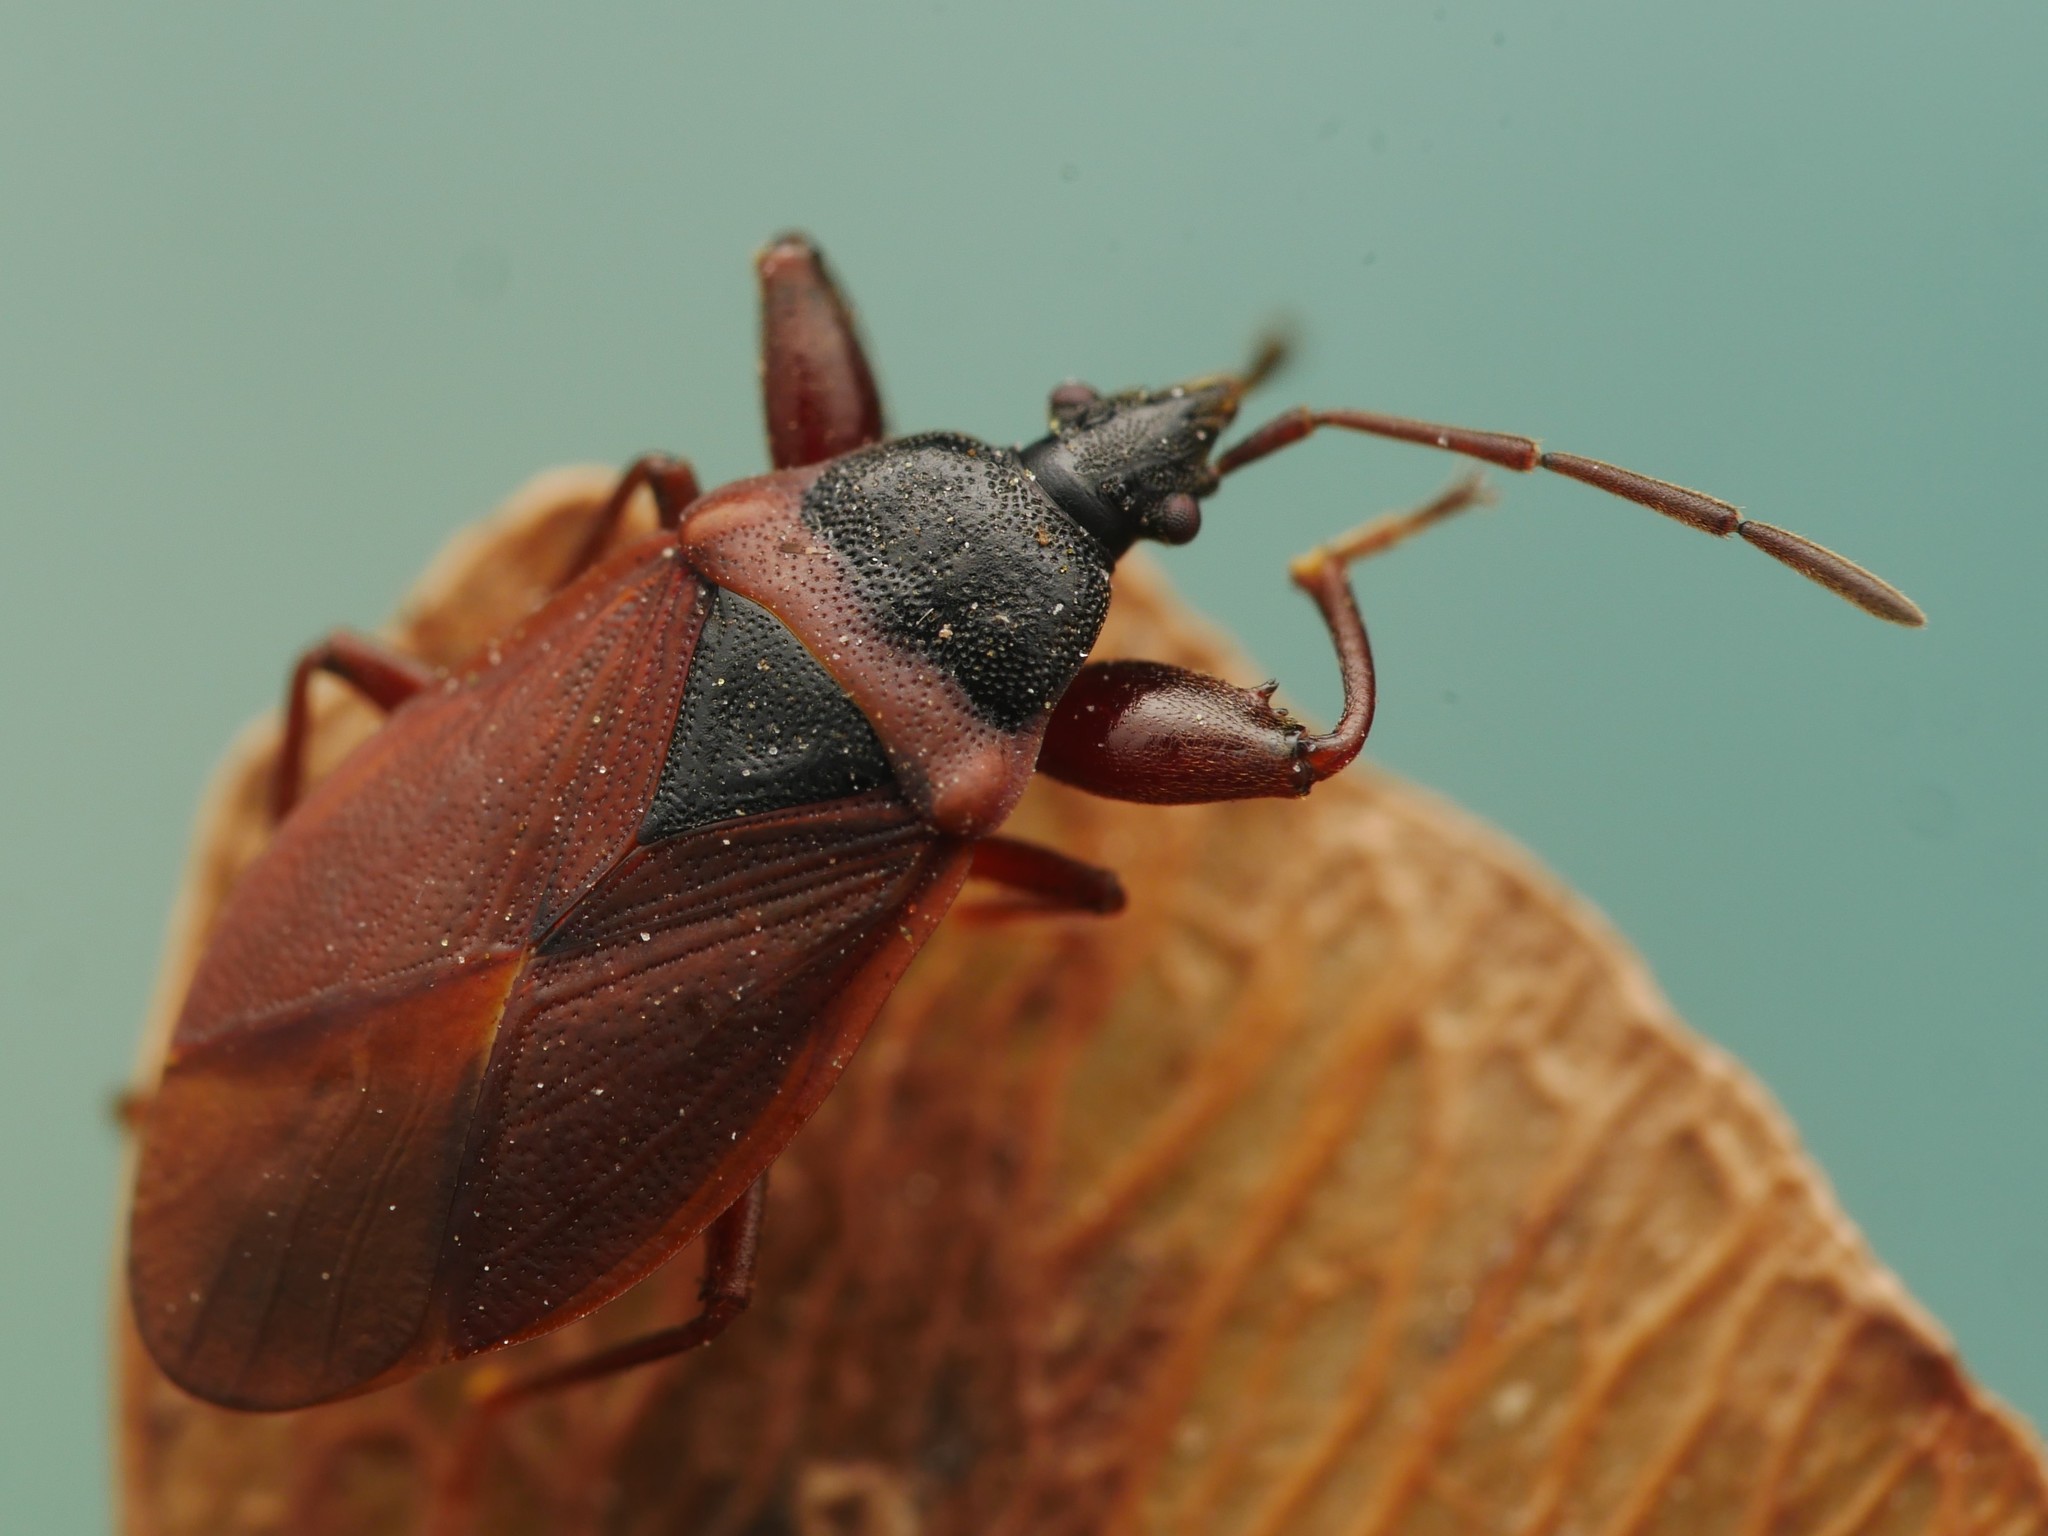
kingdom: Animalia
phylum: Arthropoda
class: Insecta
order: Hemiptera
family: Rhyparochromidae
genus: Gastrodes
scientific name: Gastrodes grossipes
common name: Pine cone bug
